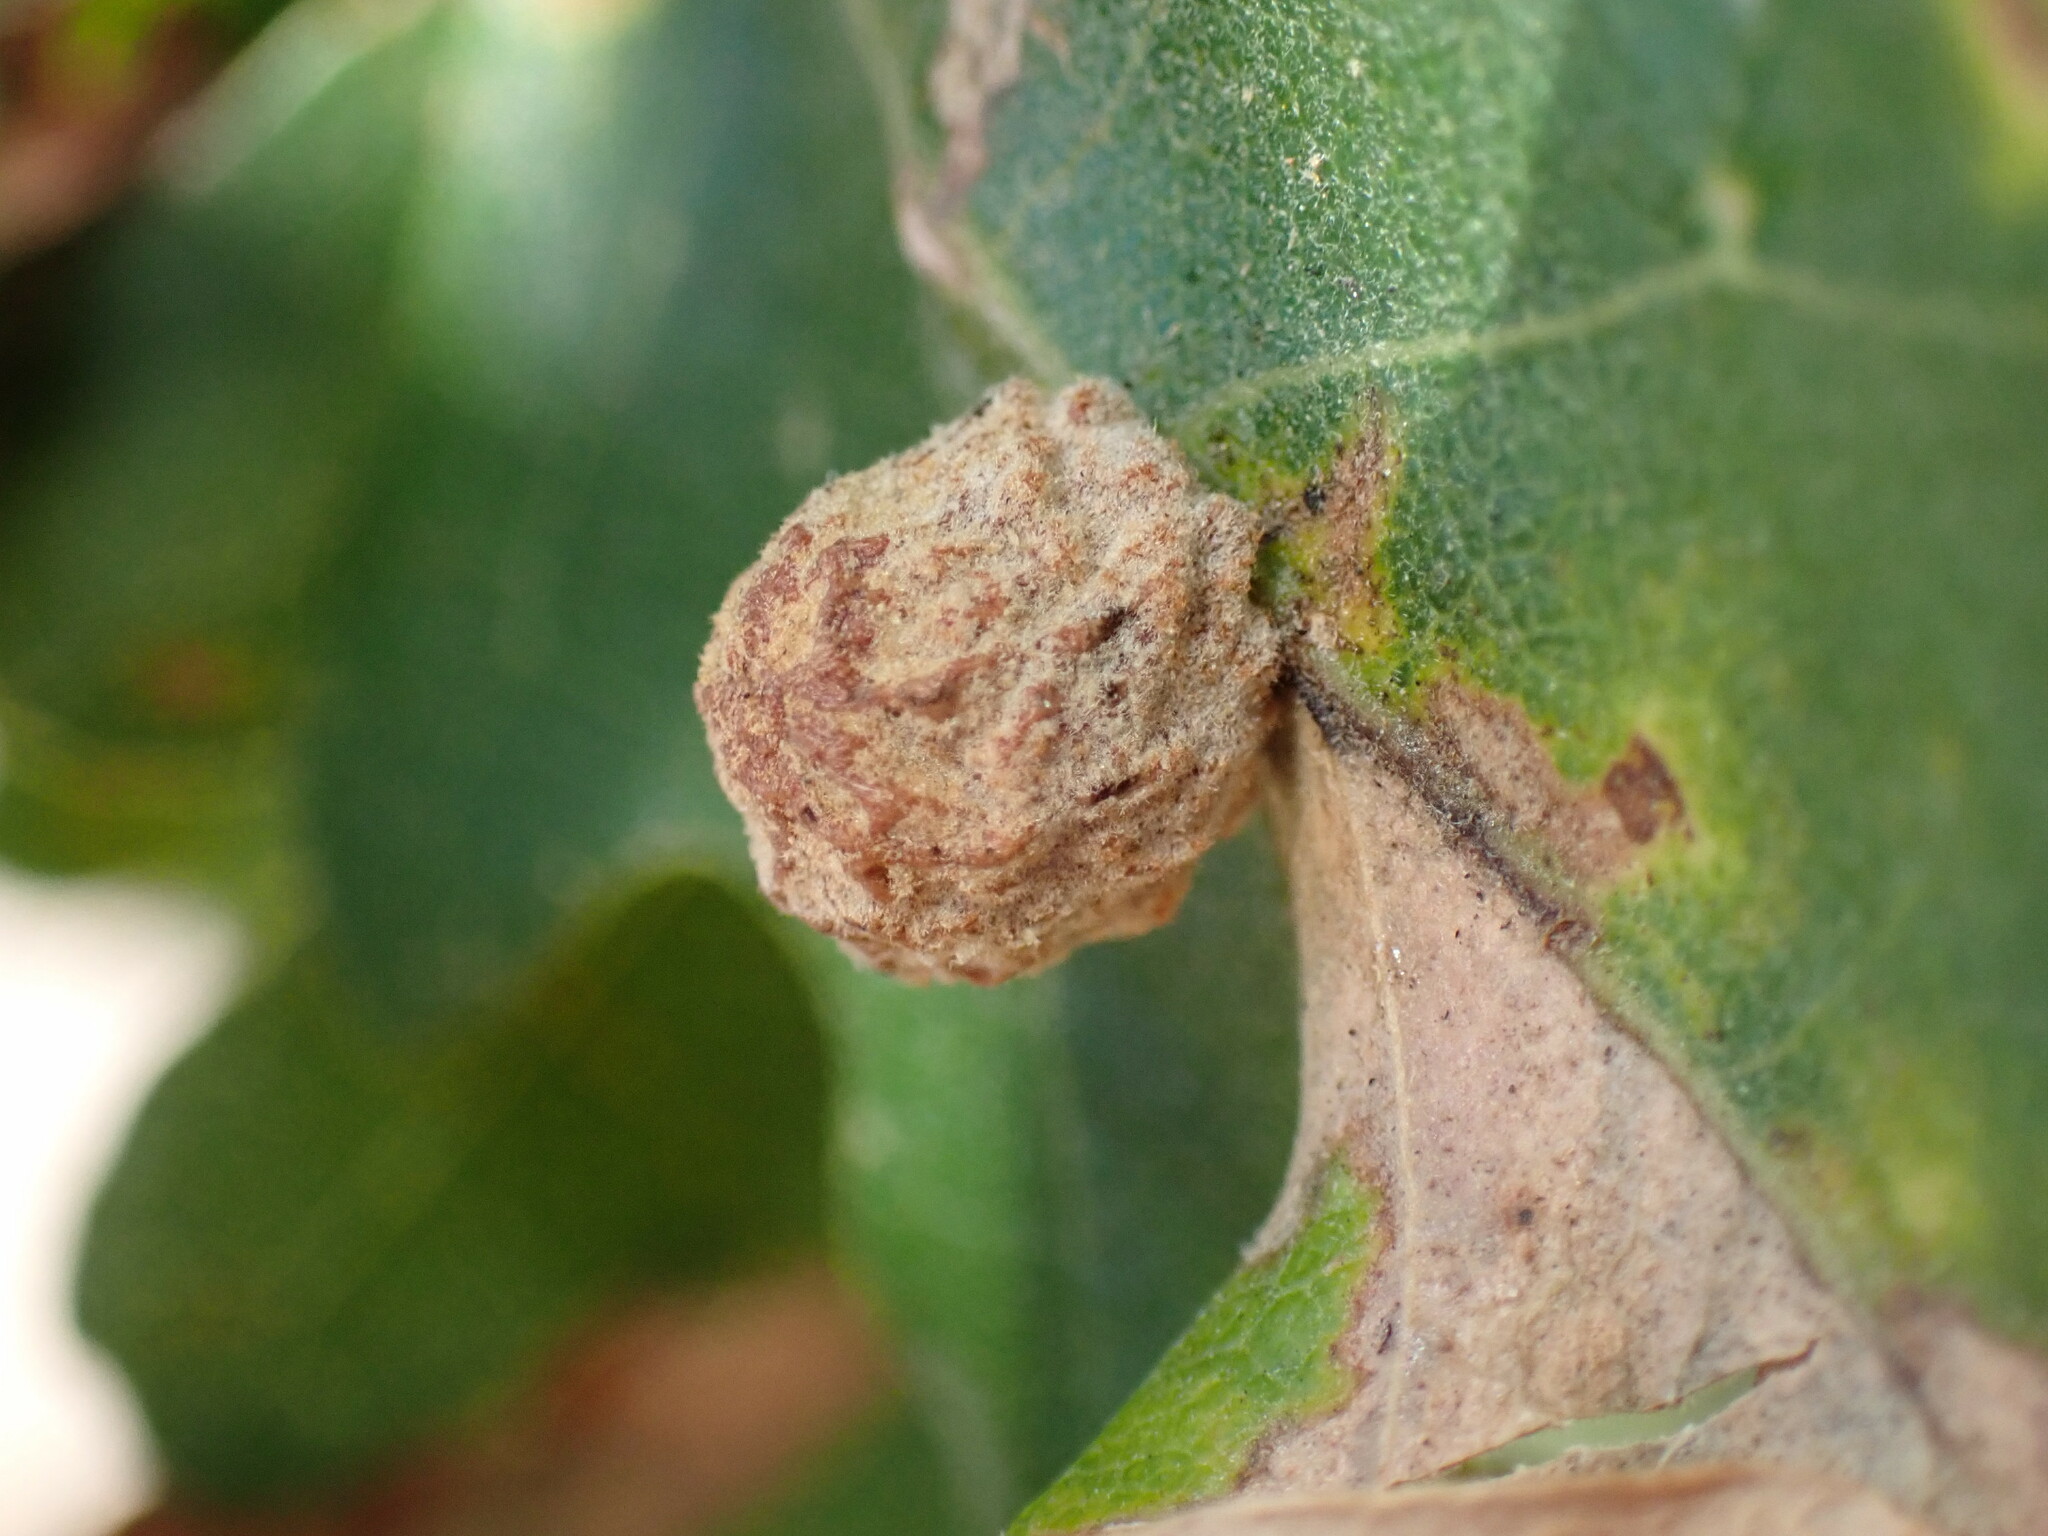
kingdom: Animalia
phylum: Arthropoda
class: Insecta
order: Hymenoptera
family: Cynipidae
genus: Cynips
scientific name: Cynips conspicua
